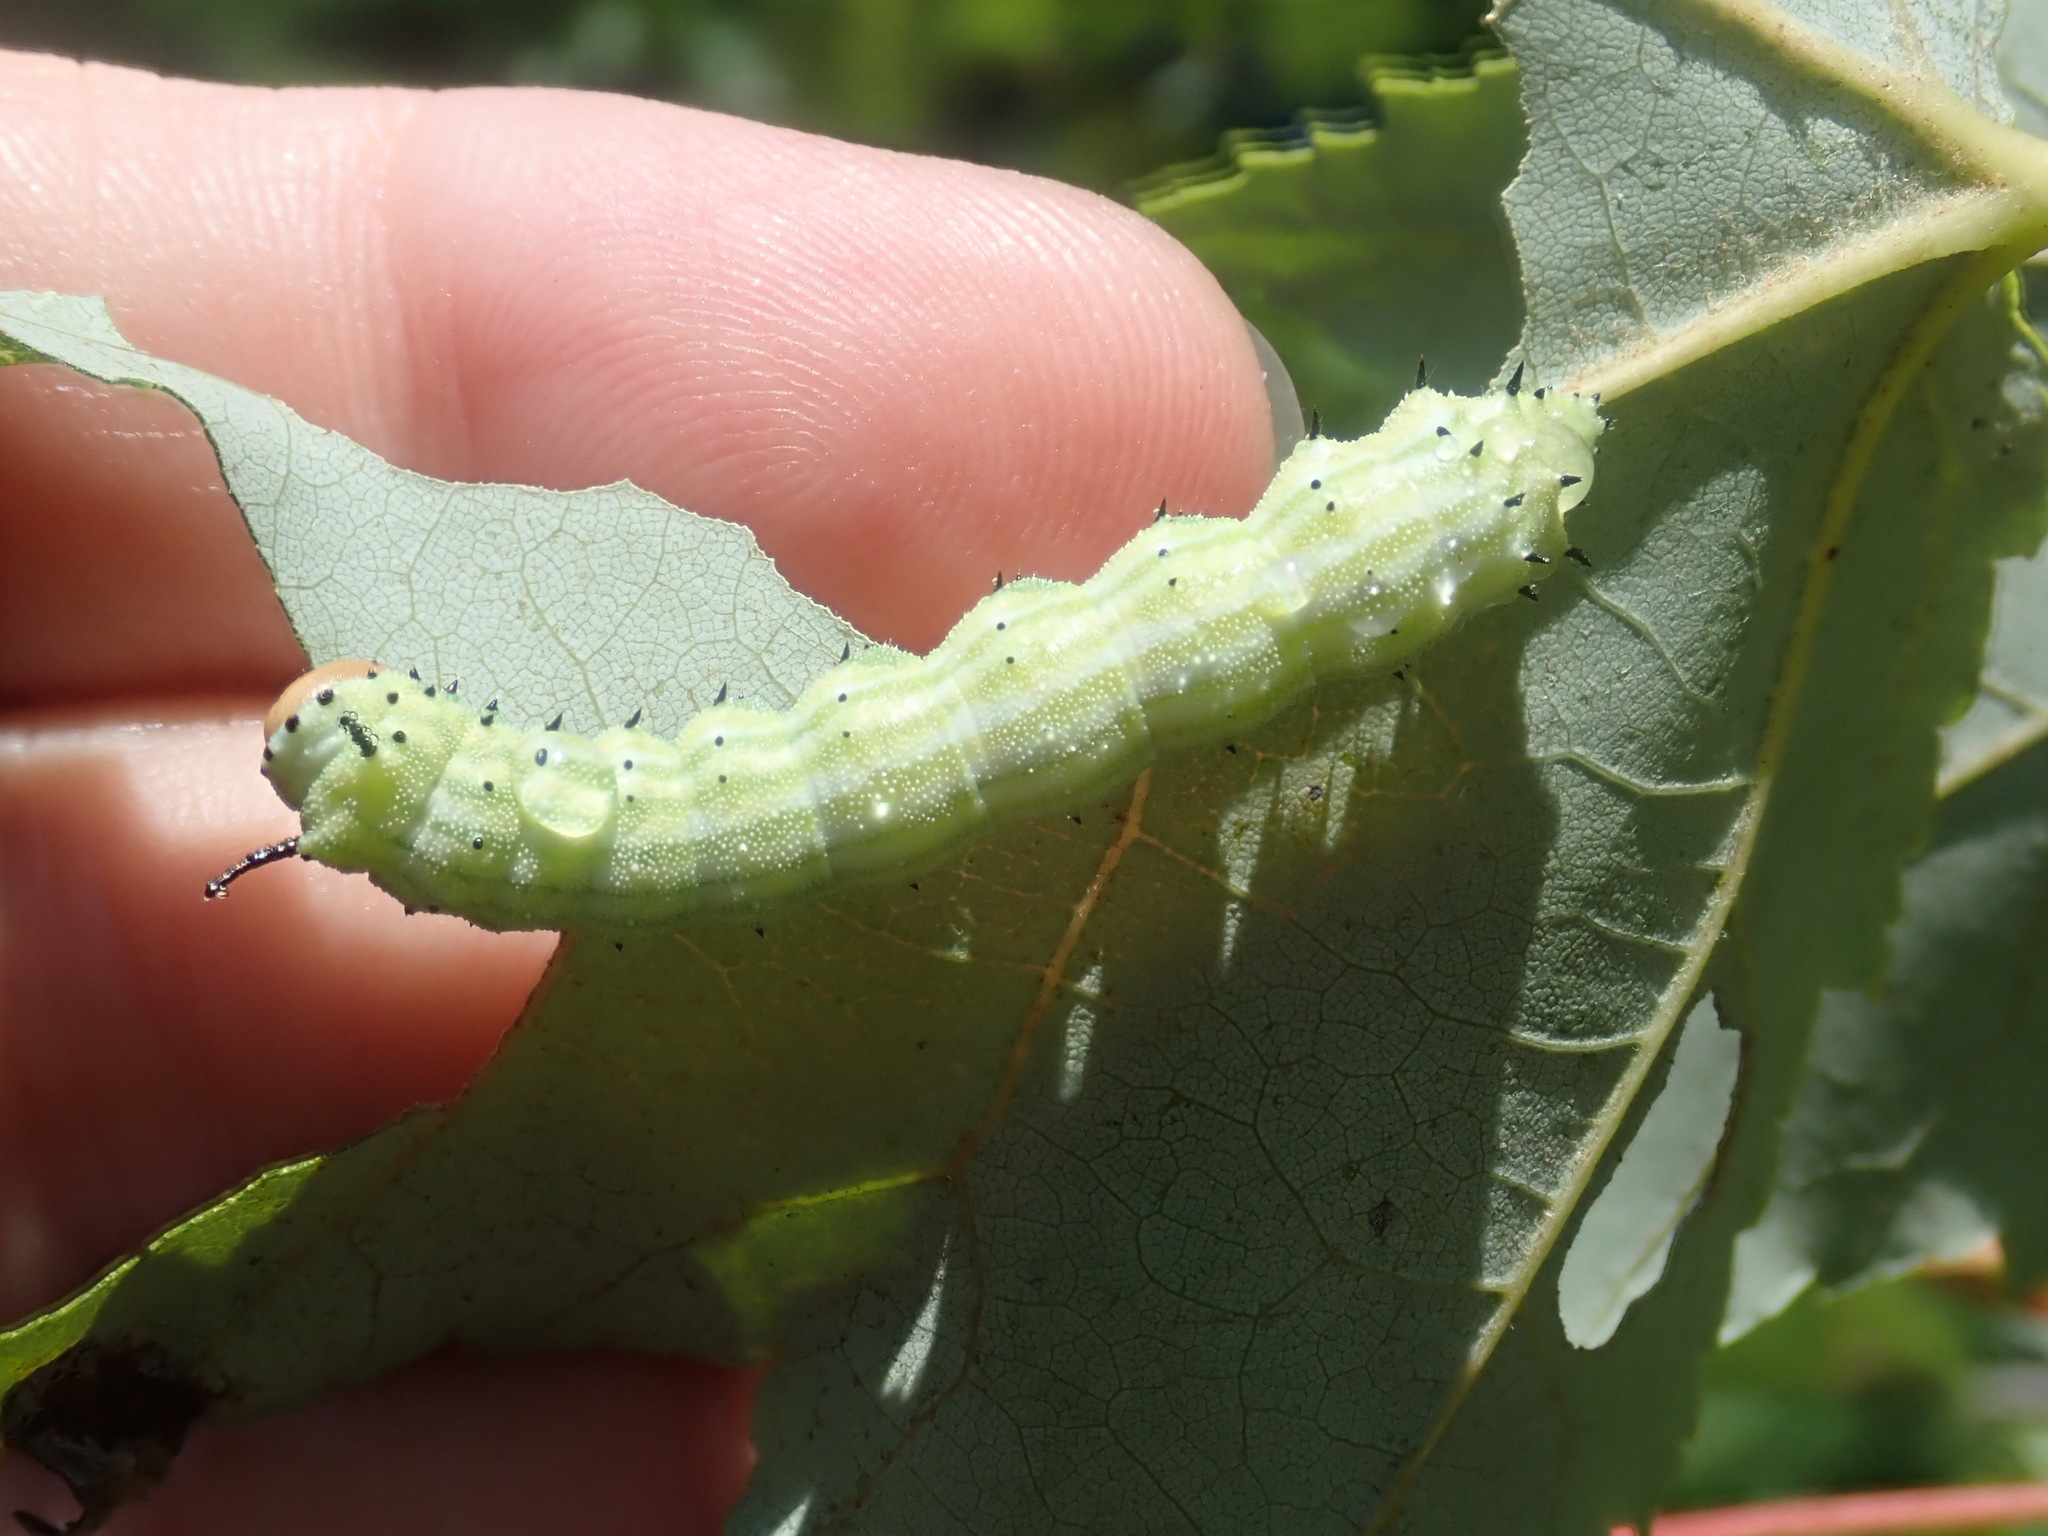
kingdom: Animalia
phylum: Arthropoda
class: Insecta
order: Lepidoptera
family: Saturniidae
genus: Dryocampa
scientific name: Dryocampa rubicunda
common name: Rosy maple moth
